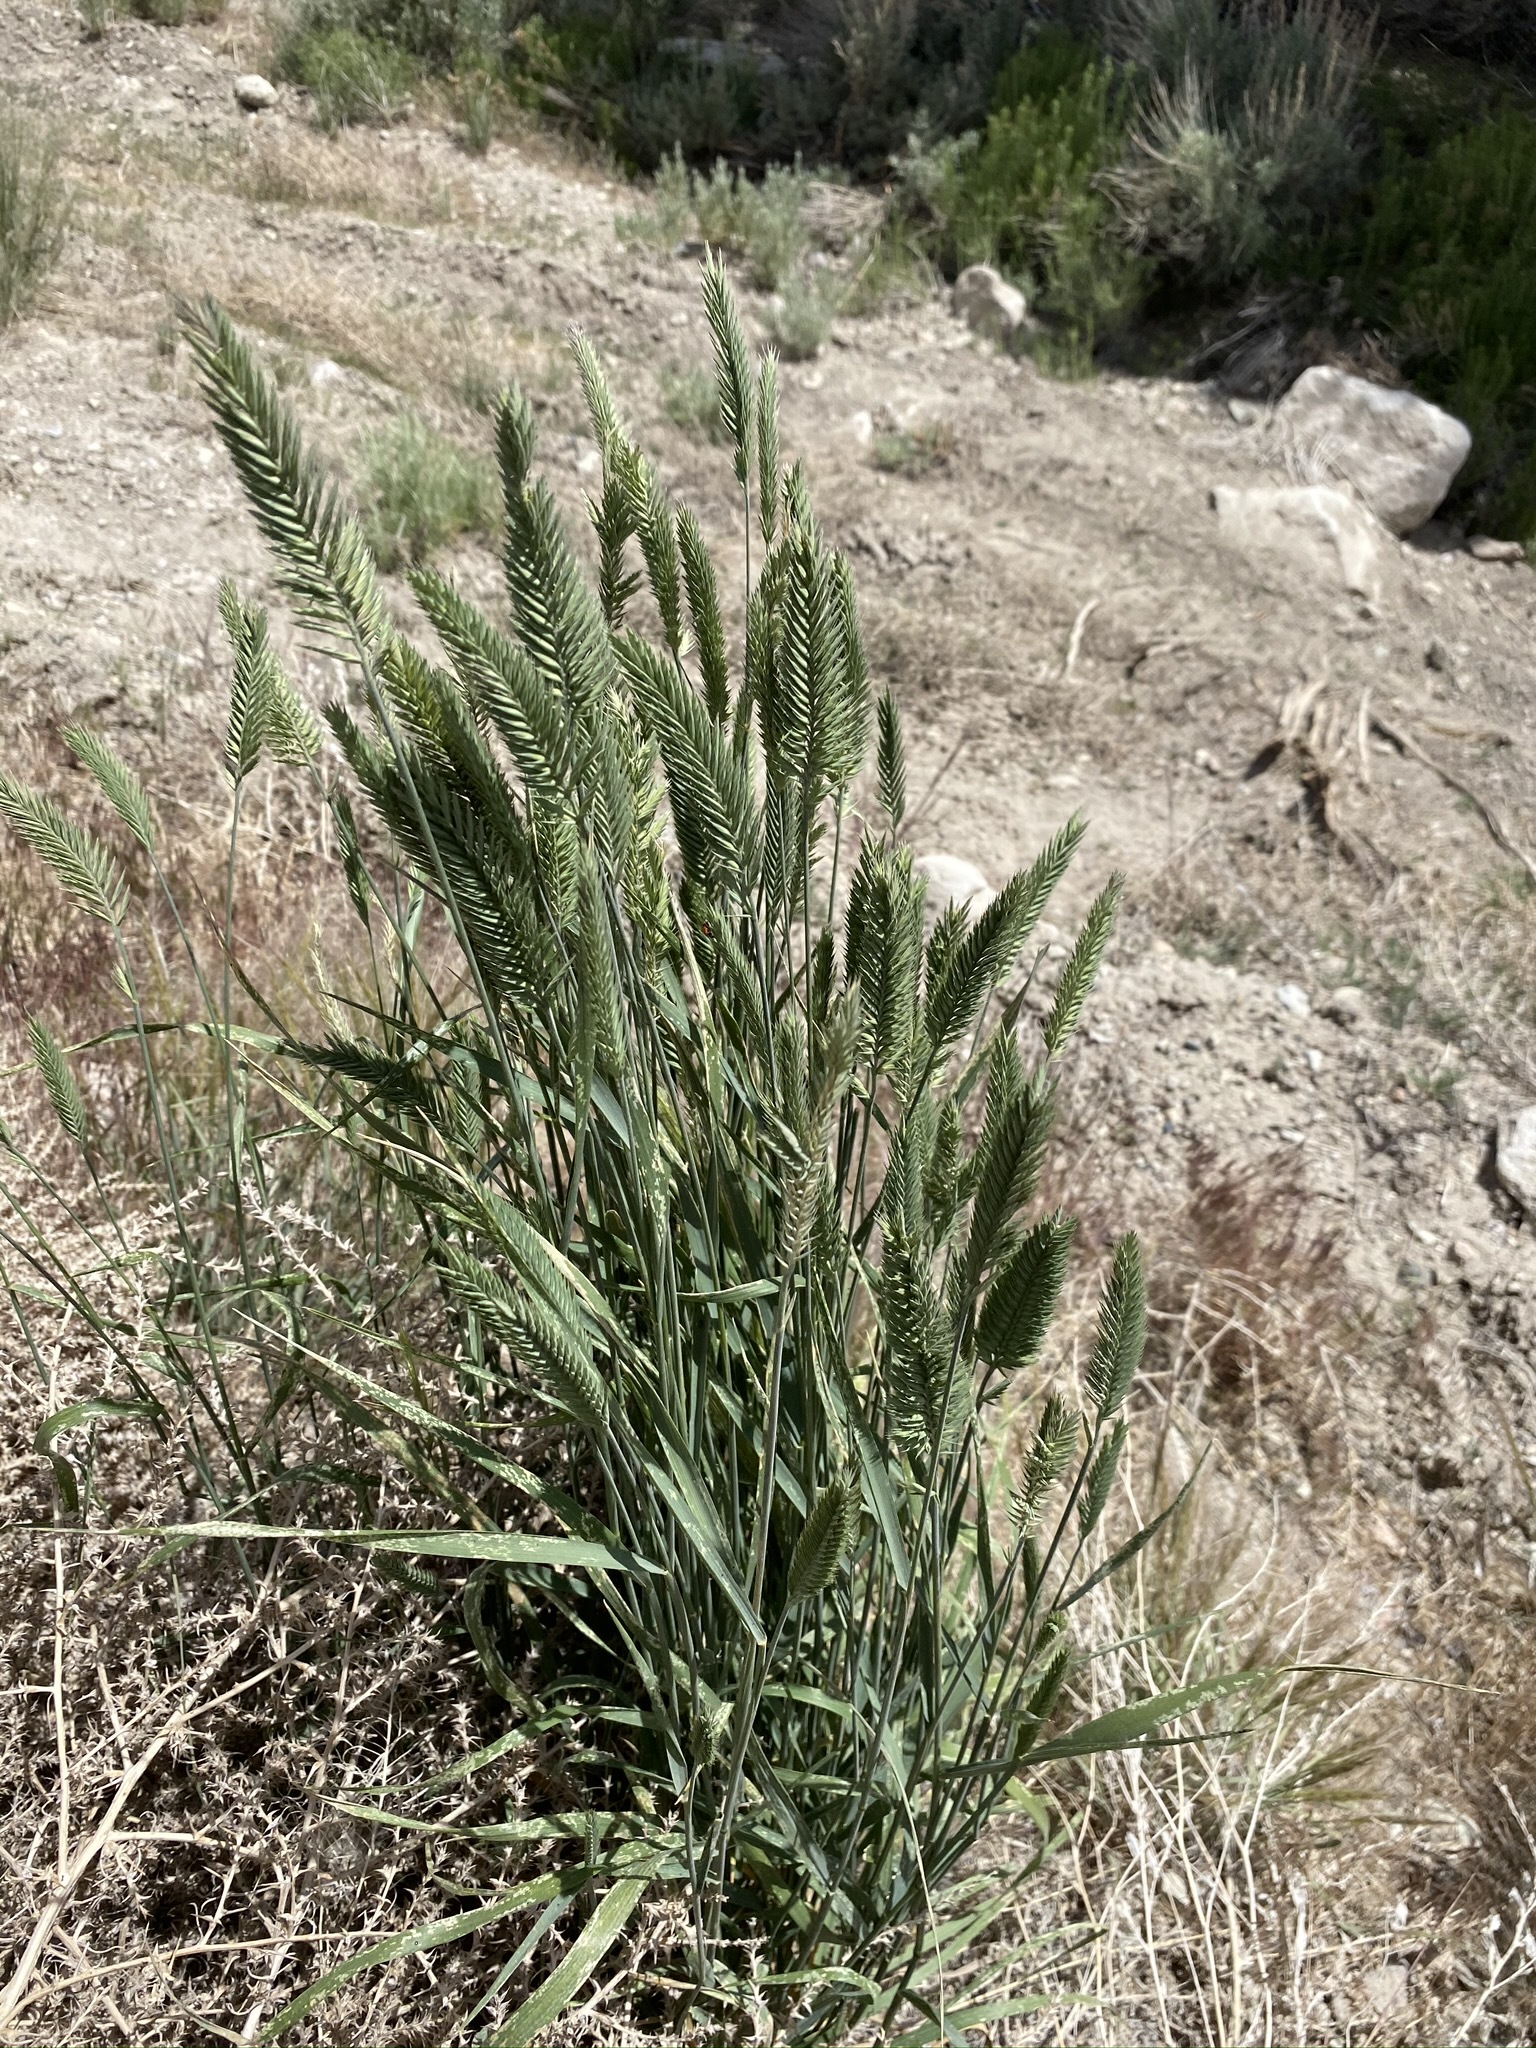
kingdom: Plantae
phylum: Tracheophyta
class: Liliopsida
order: Poales
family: Poaceae
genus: Agropyron
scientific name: Agropyron cristatum
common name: Crested wheatgrass
